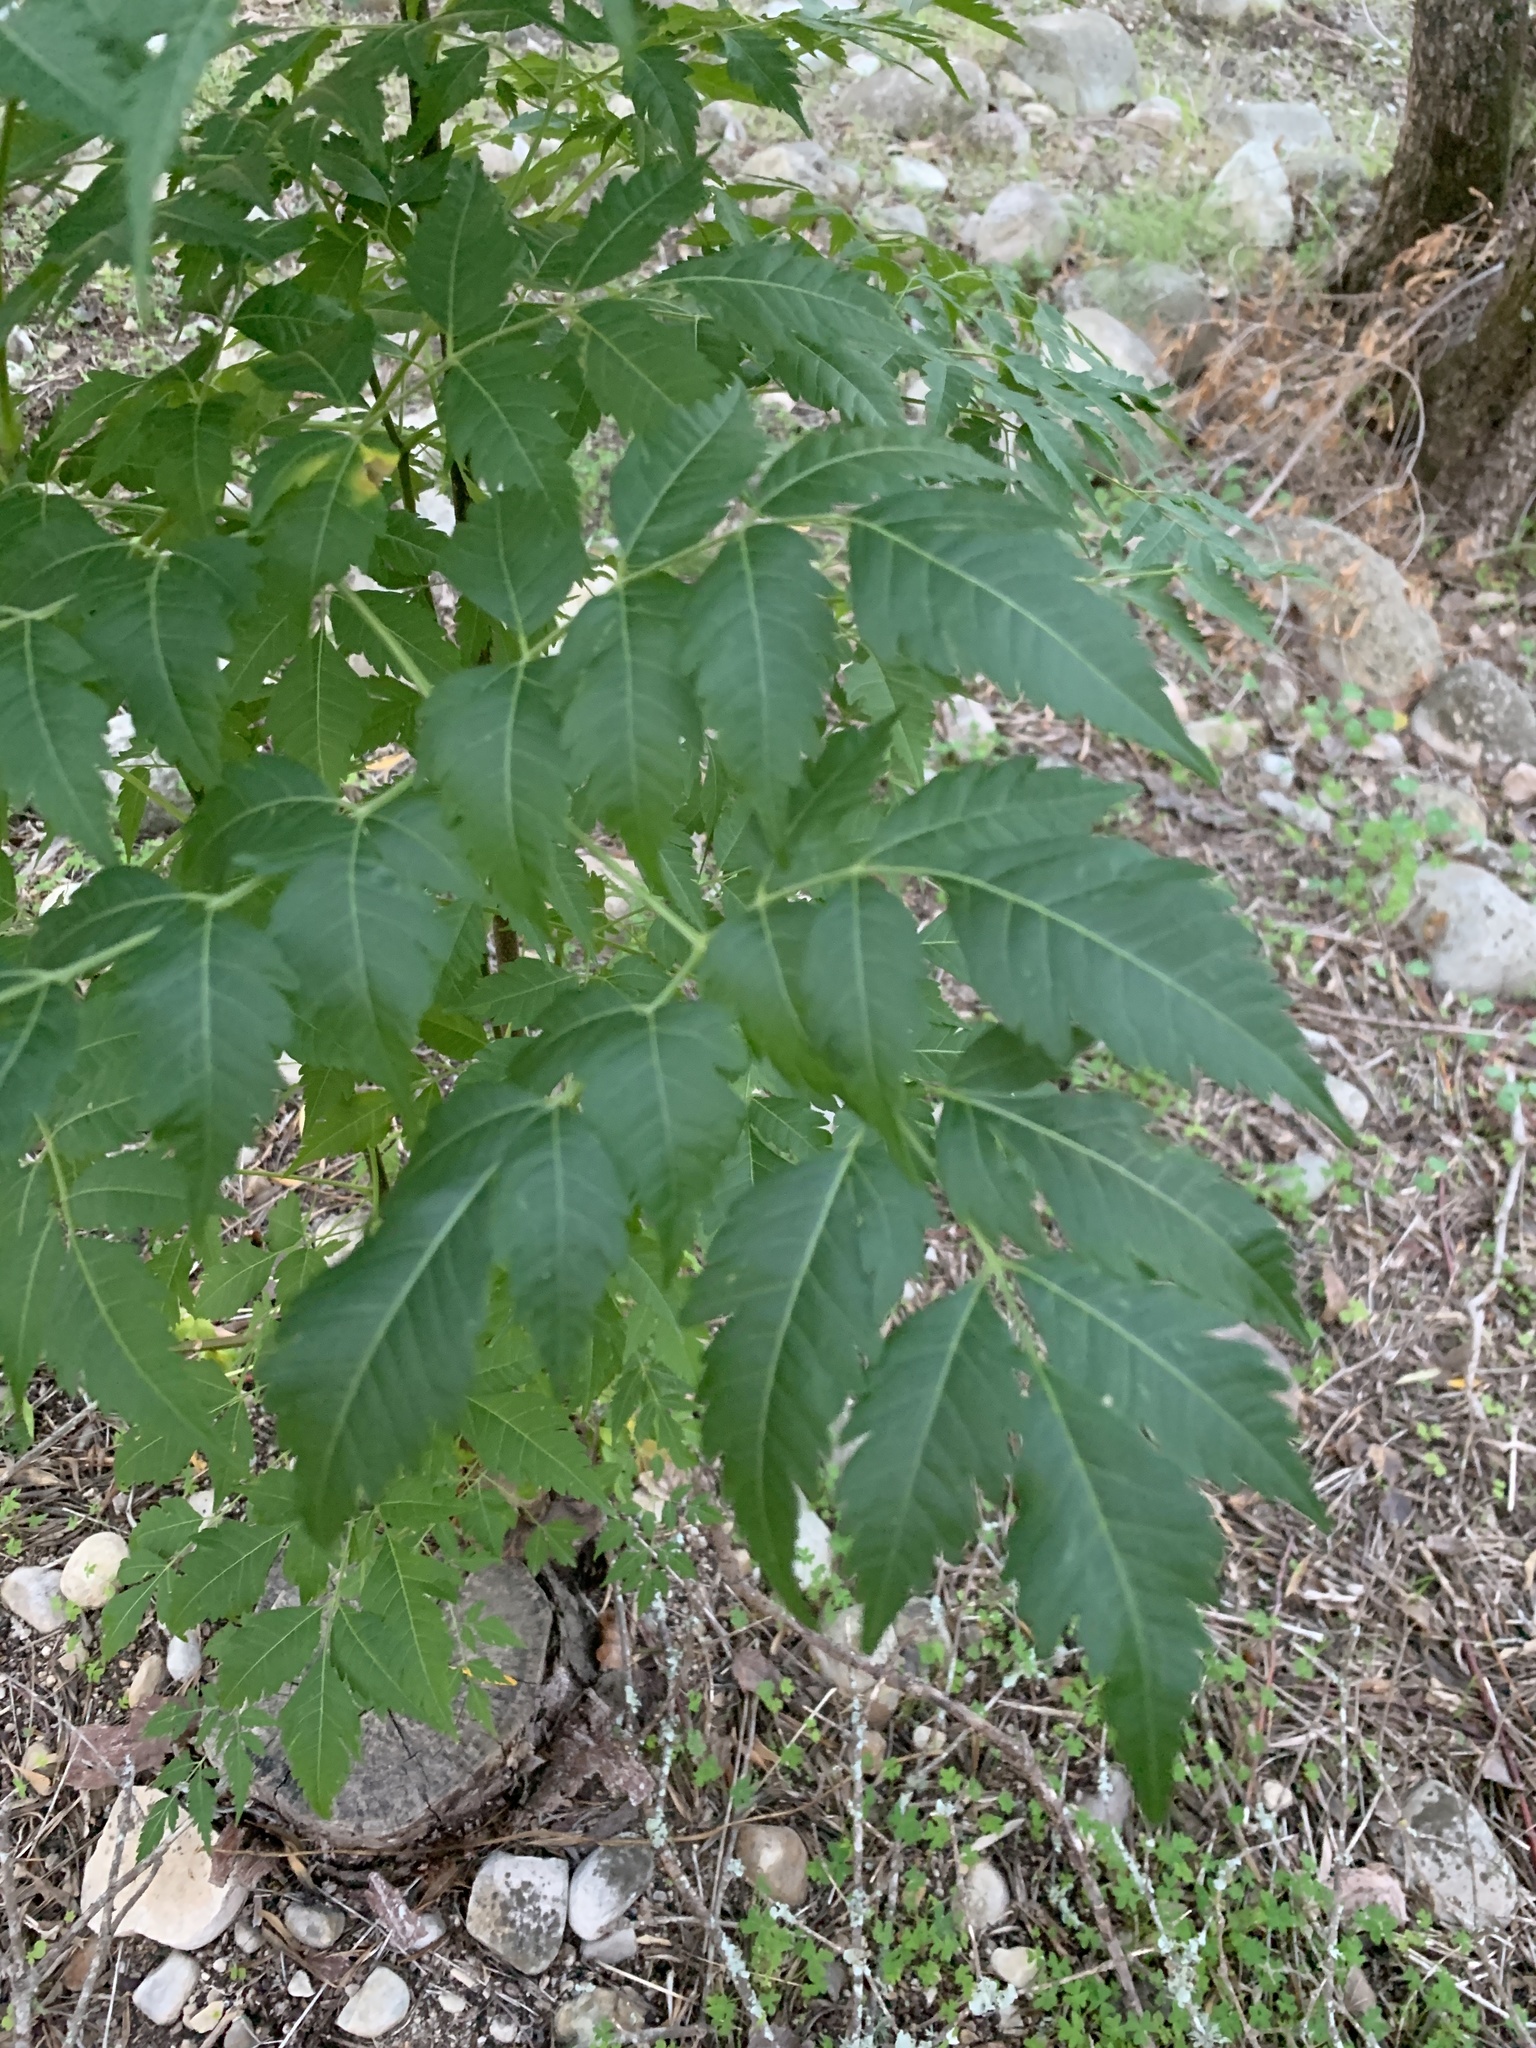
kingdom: Plantae
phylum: Tracheophyta
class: Magnoliopsida
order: Sapindales
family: Meliaceae
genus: Melia
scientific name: Melia azedarach
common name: Chinaberrytree
